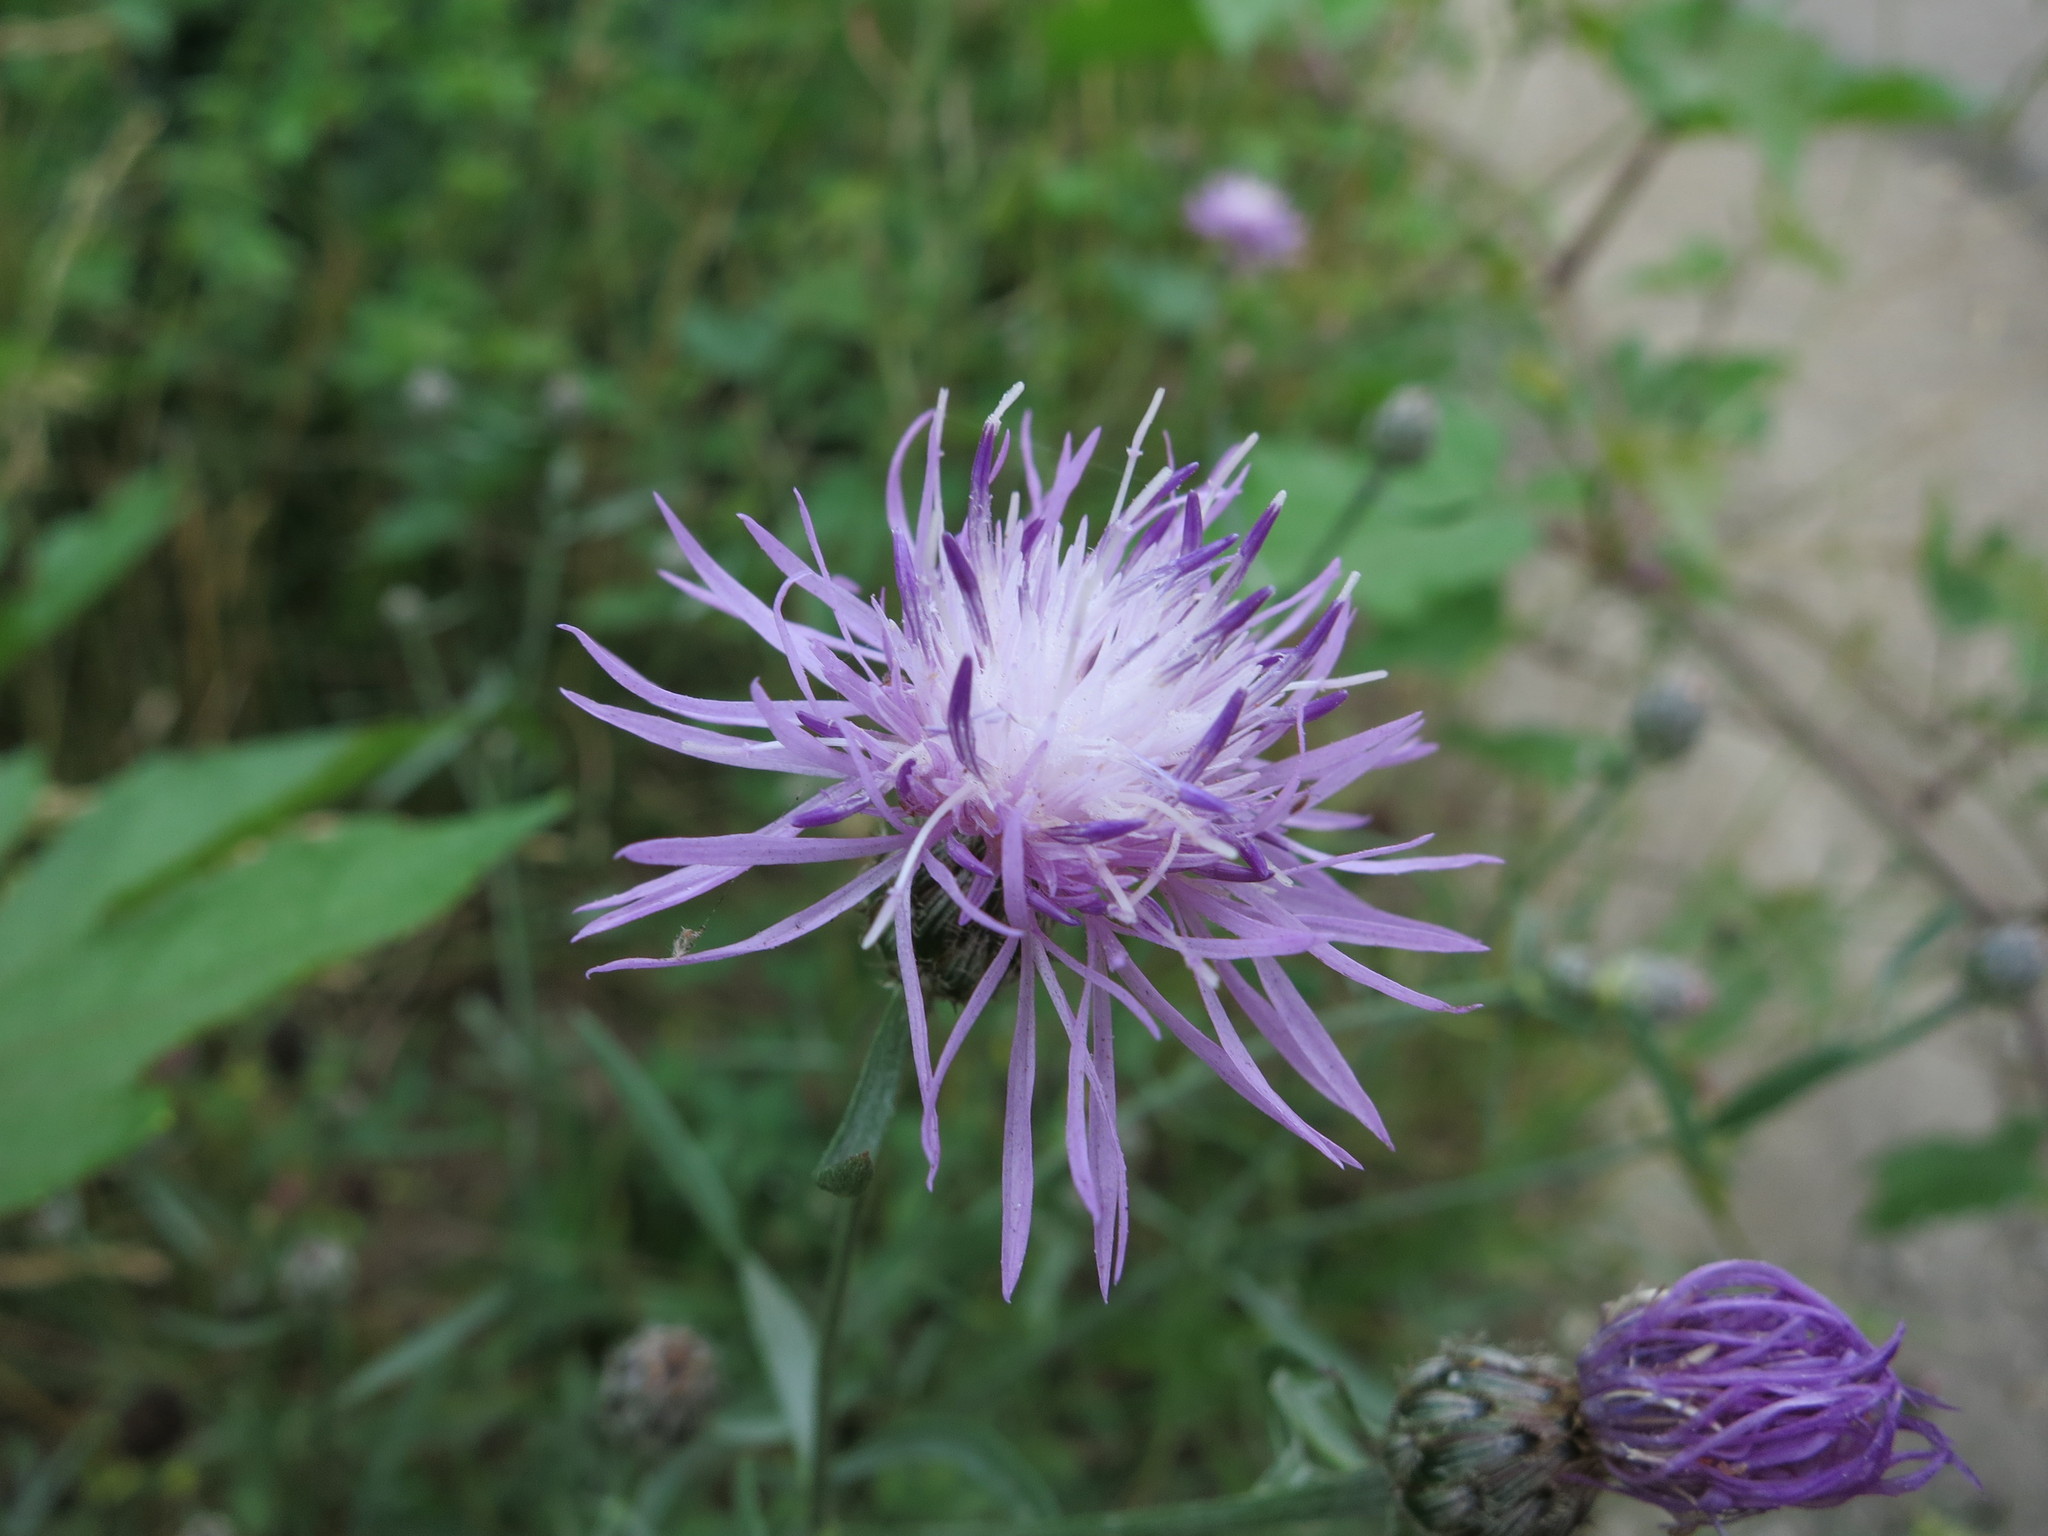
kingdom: Plantae
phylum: Tracheophyta
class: Magnoliopsida
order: Asterales
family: Asteraceae
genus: Centaurea
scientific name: Centaurea australis
